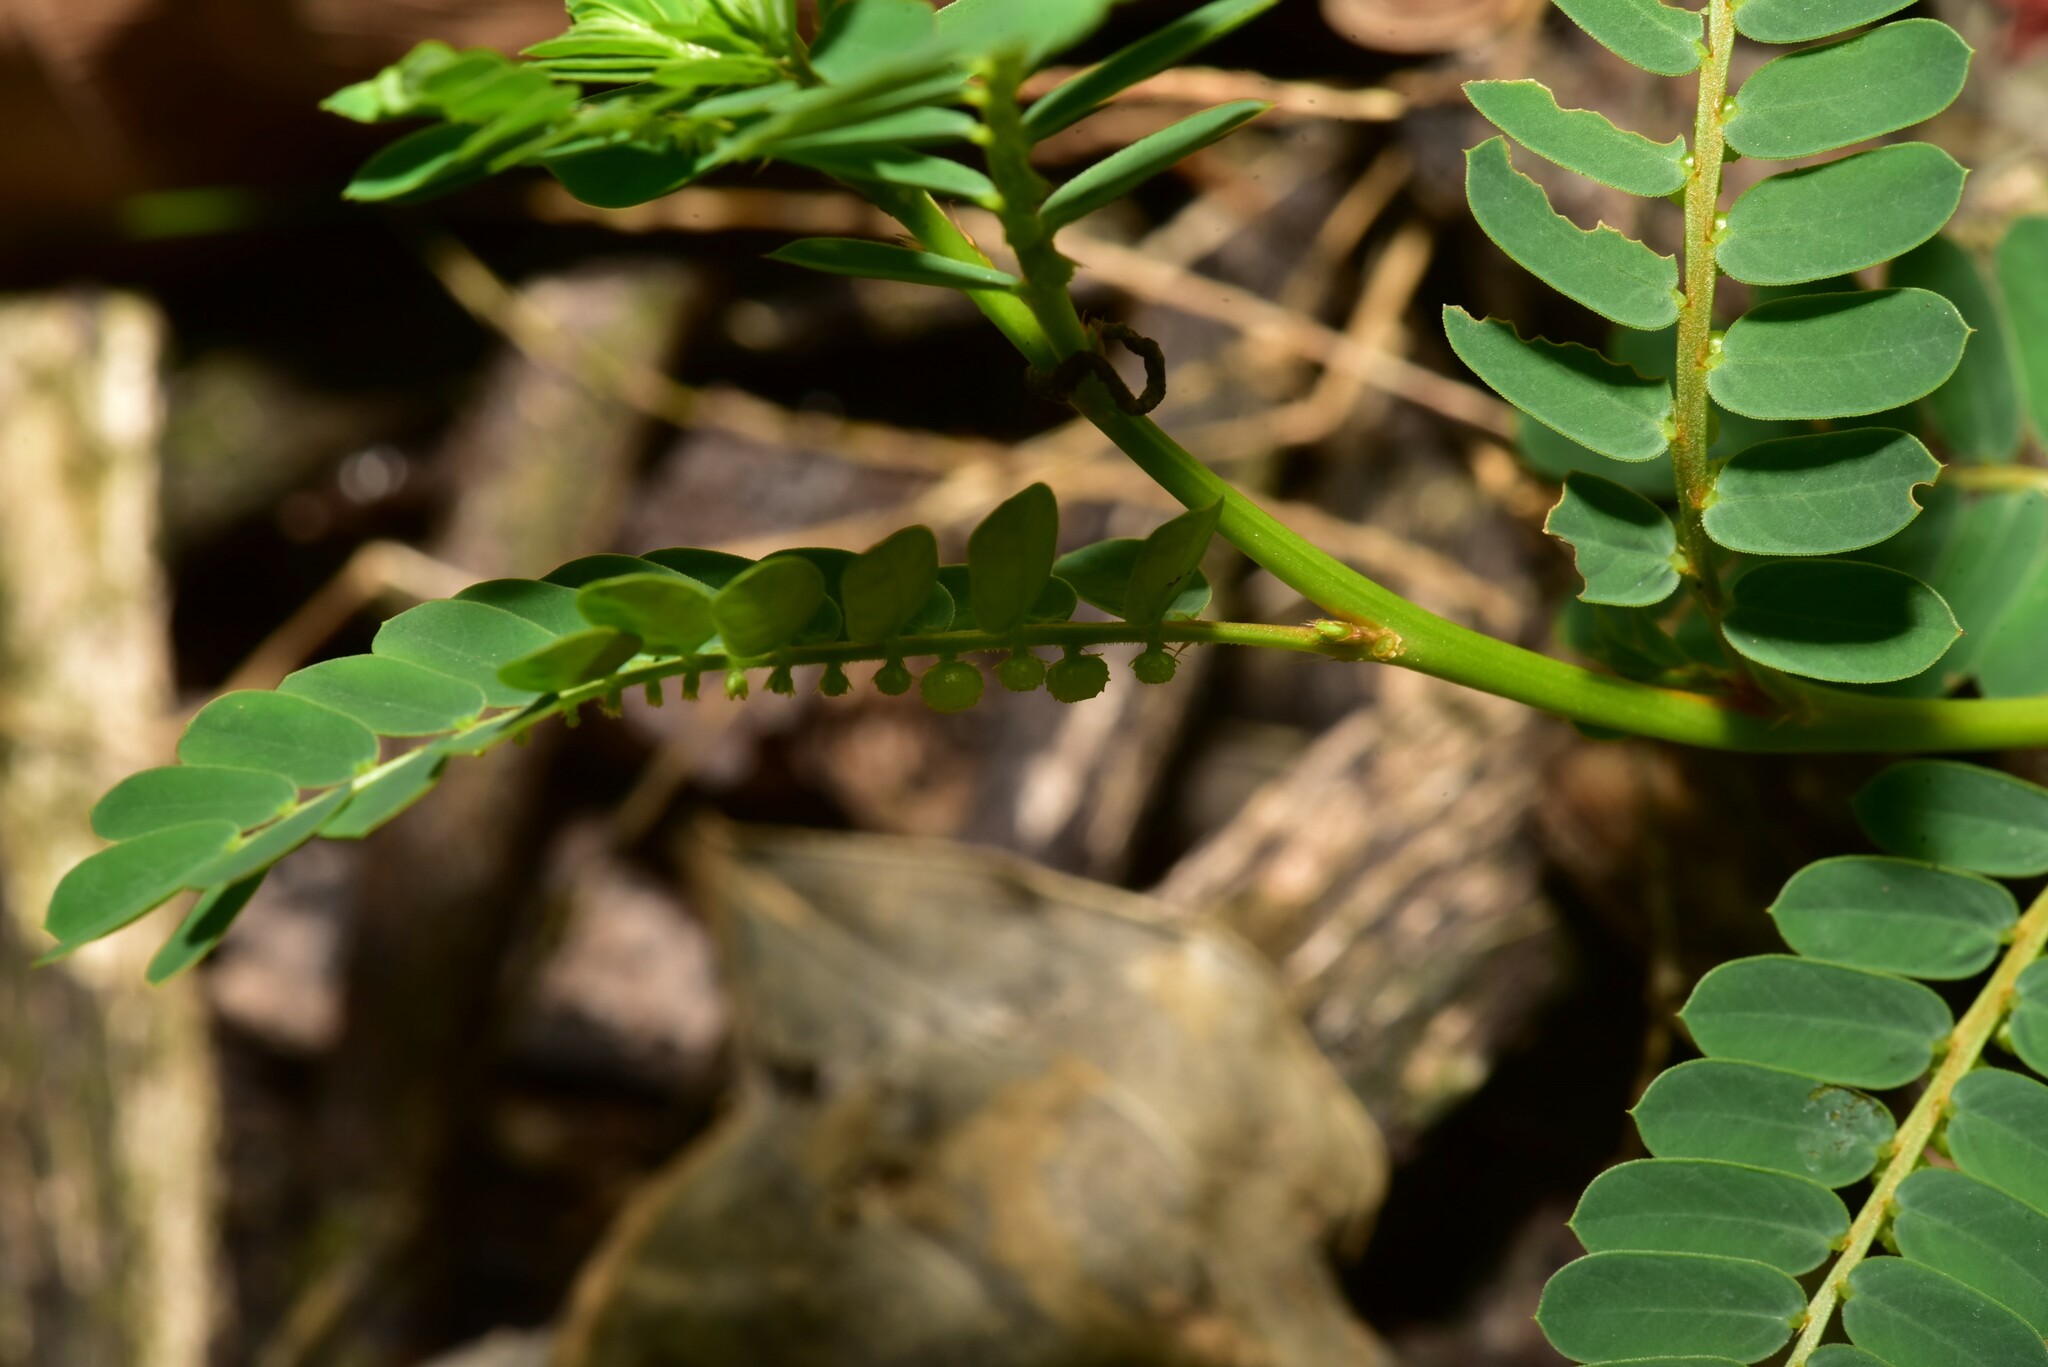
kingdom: Plantae
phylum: Tracheophyta
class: Magnoliopsida
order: Malpighiales
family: Phyllanthaceae
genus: Phyllanthus
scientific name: Phyllanthus urinaria
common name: Chamber bitter
